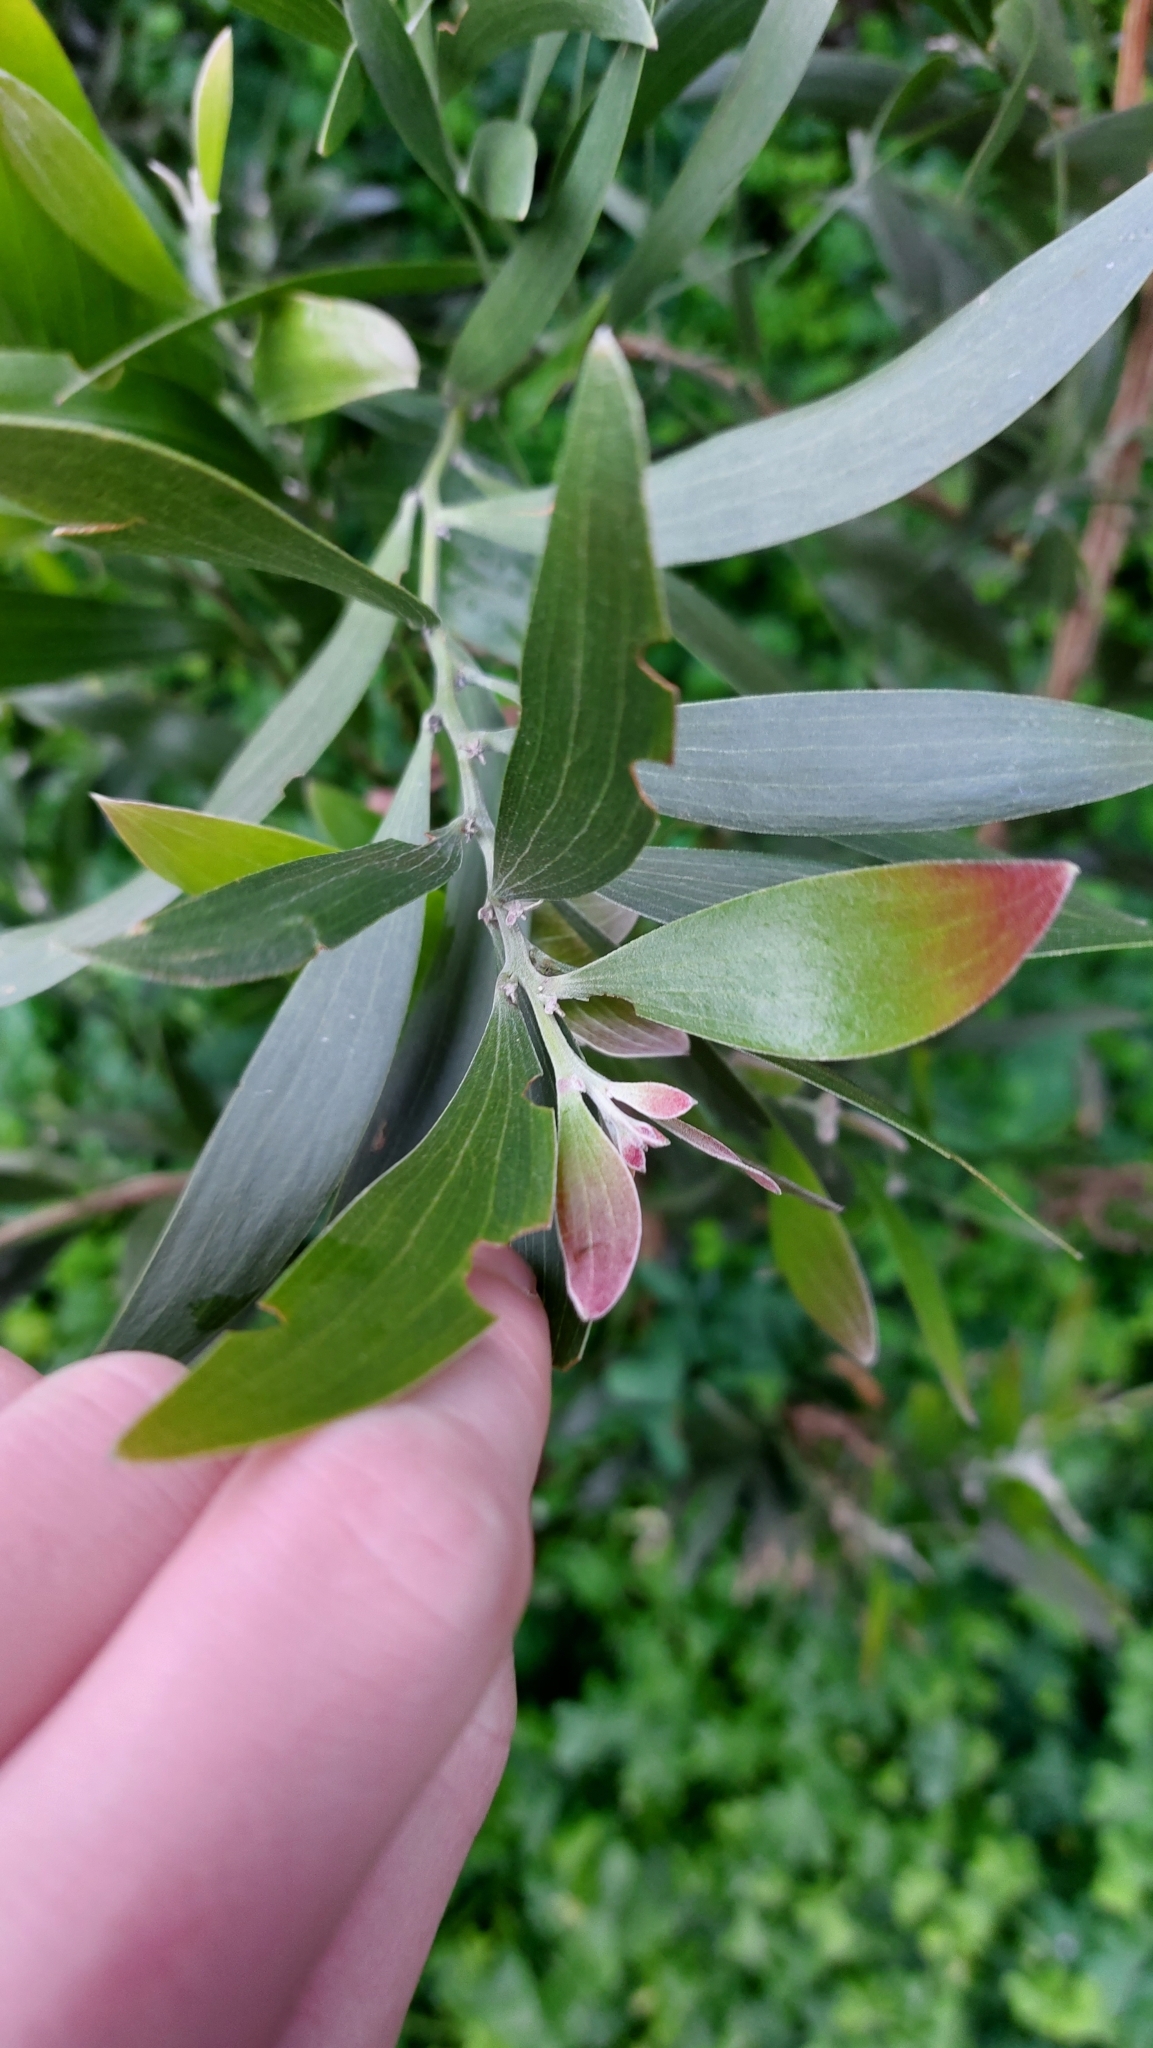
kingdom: Plantae
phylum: Tracheophyta
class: Magnoliopsida
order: Fabales
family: Fabaceae
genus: Acacia
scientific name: Acacia melanoxylon
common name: Blackwood
